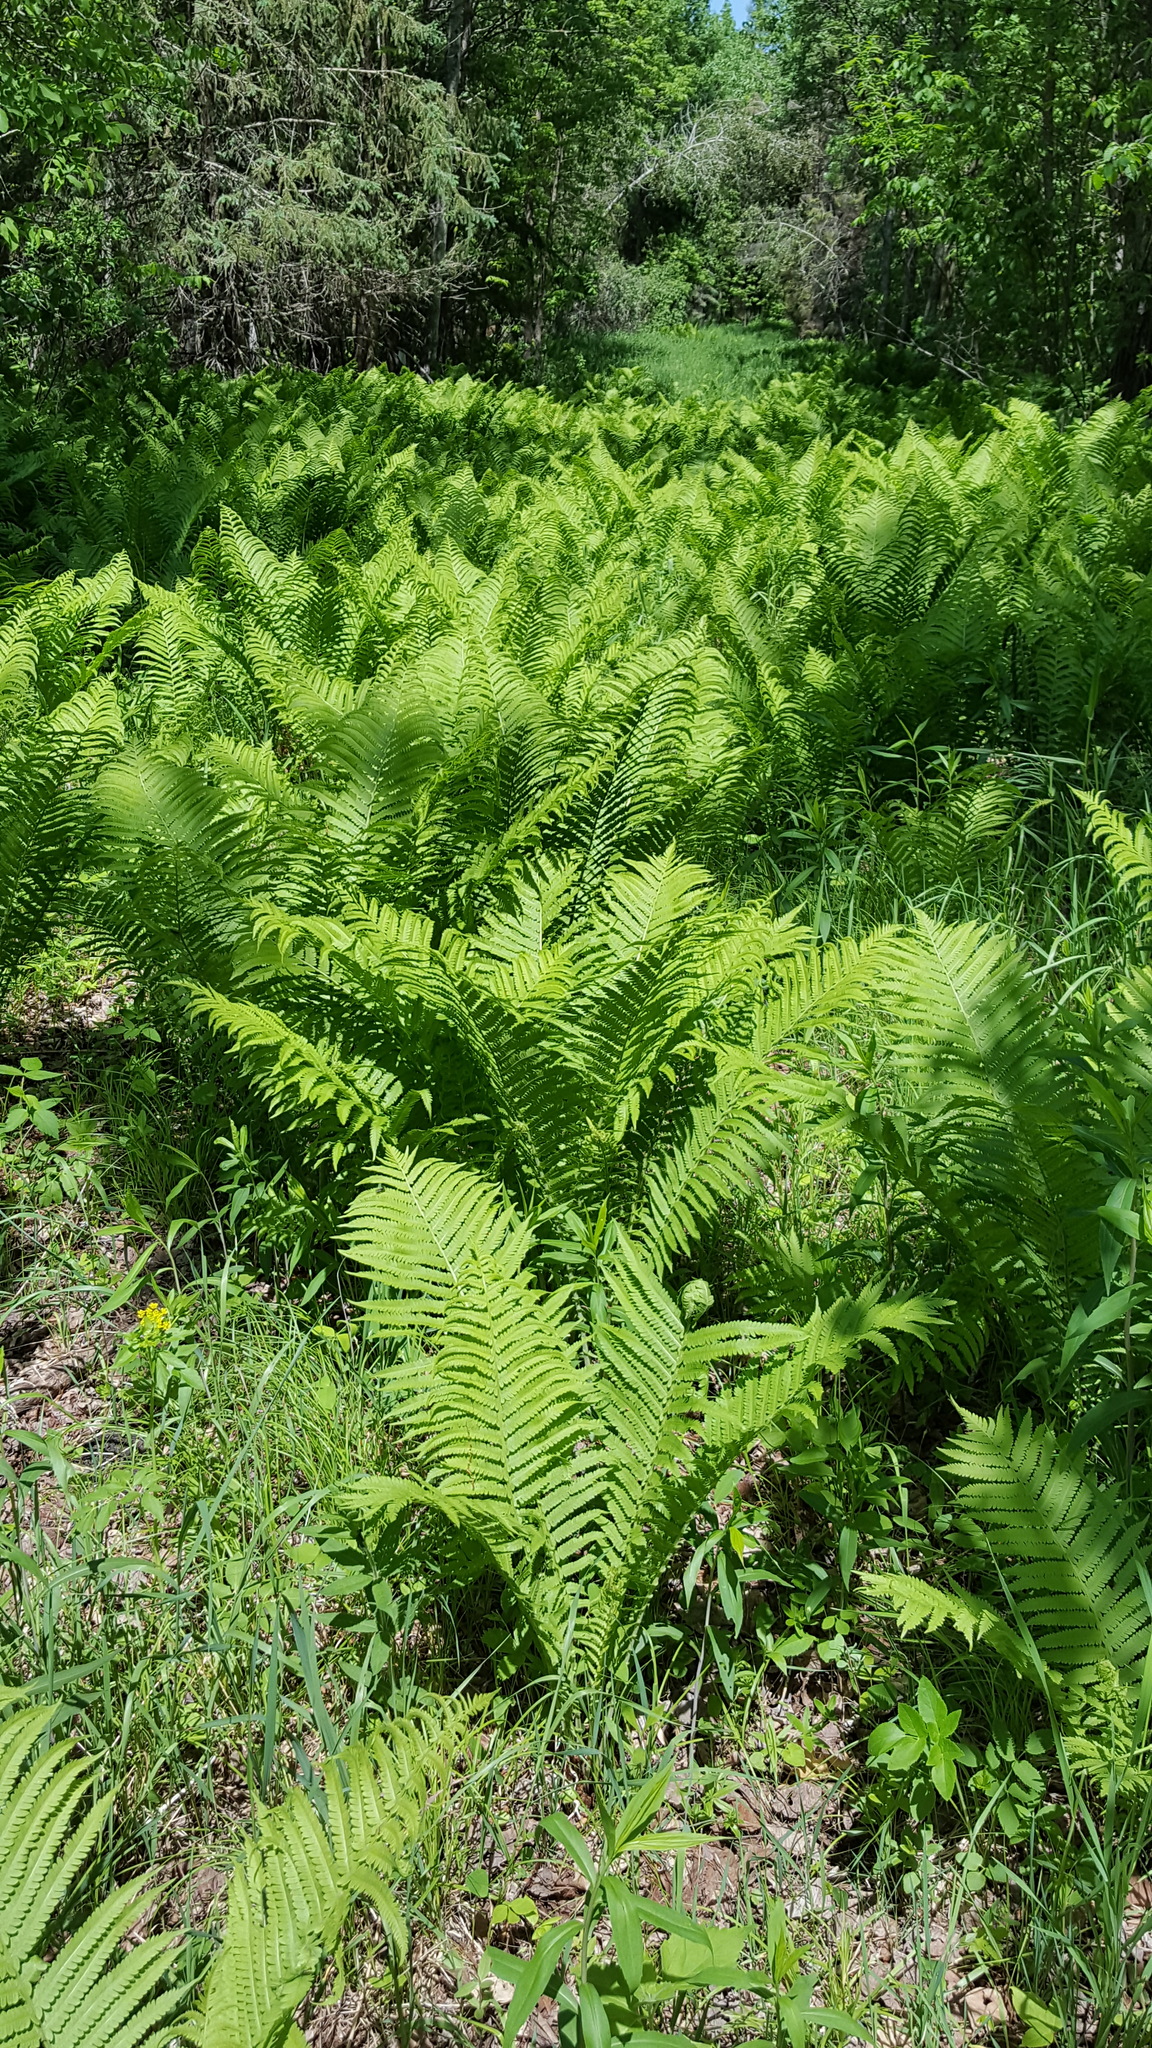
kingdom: Plantae
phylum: Tracheophyta
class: Polypodiopsida
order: Polypodiales
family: Onocleaceae
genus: Matteuccia
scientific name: Matteuccia struthiopteris
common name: Ostrich fern
